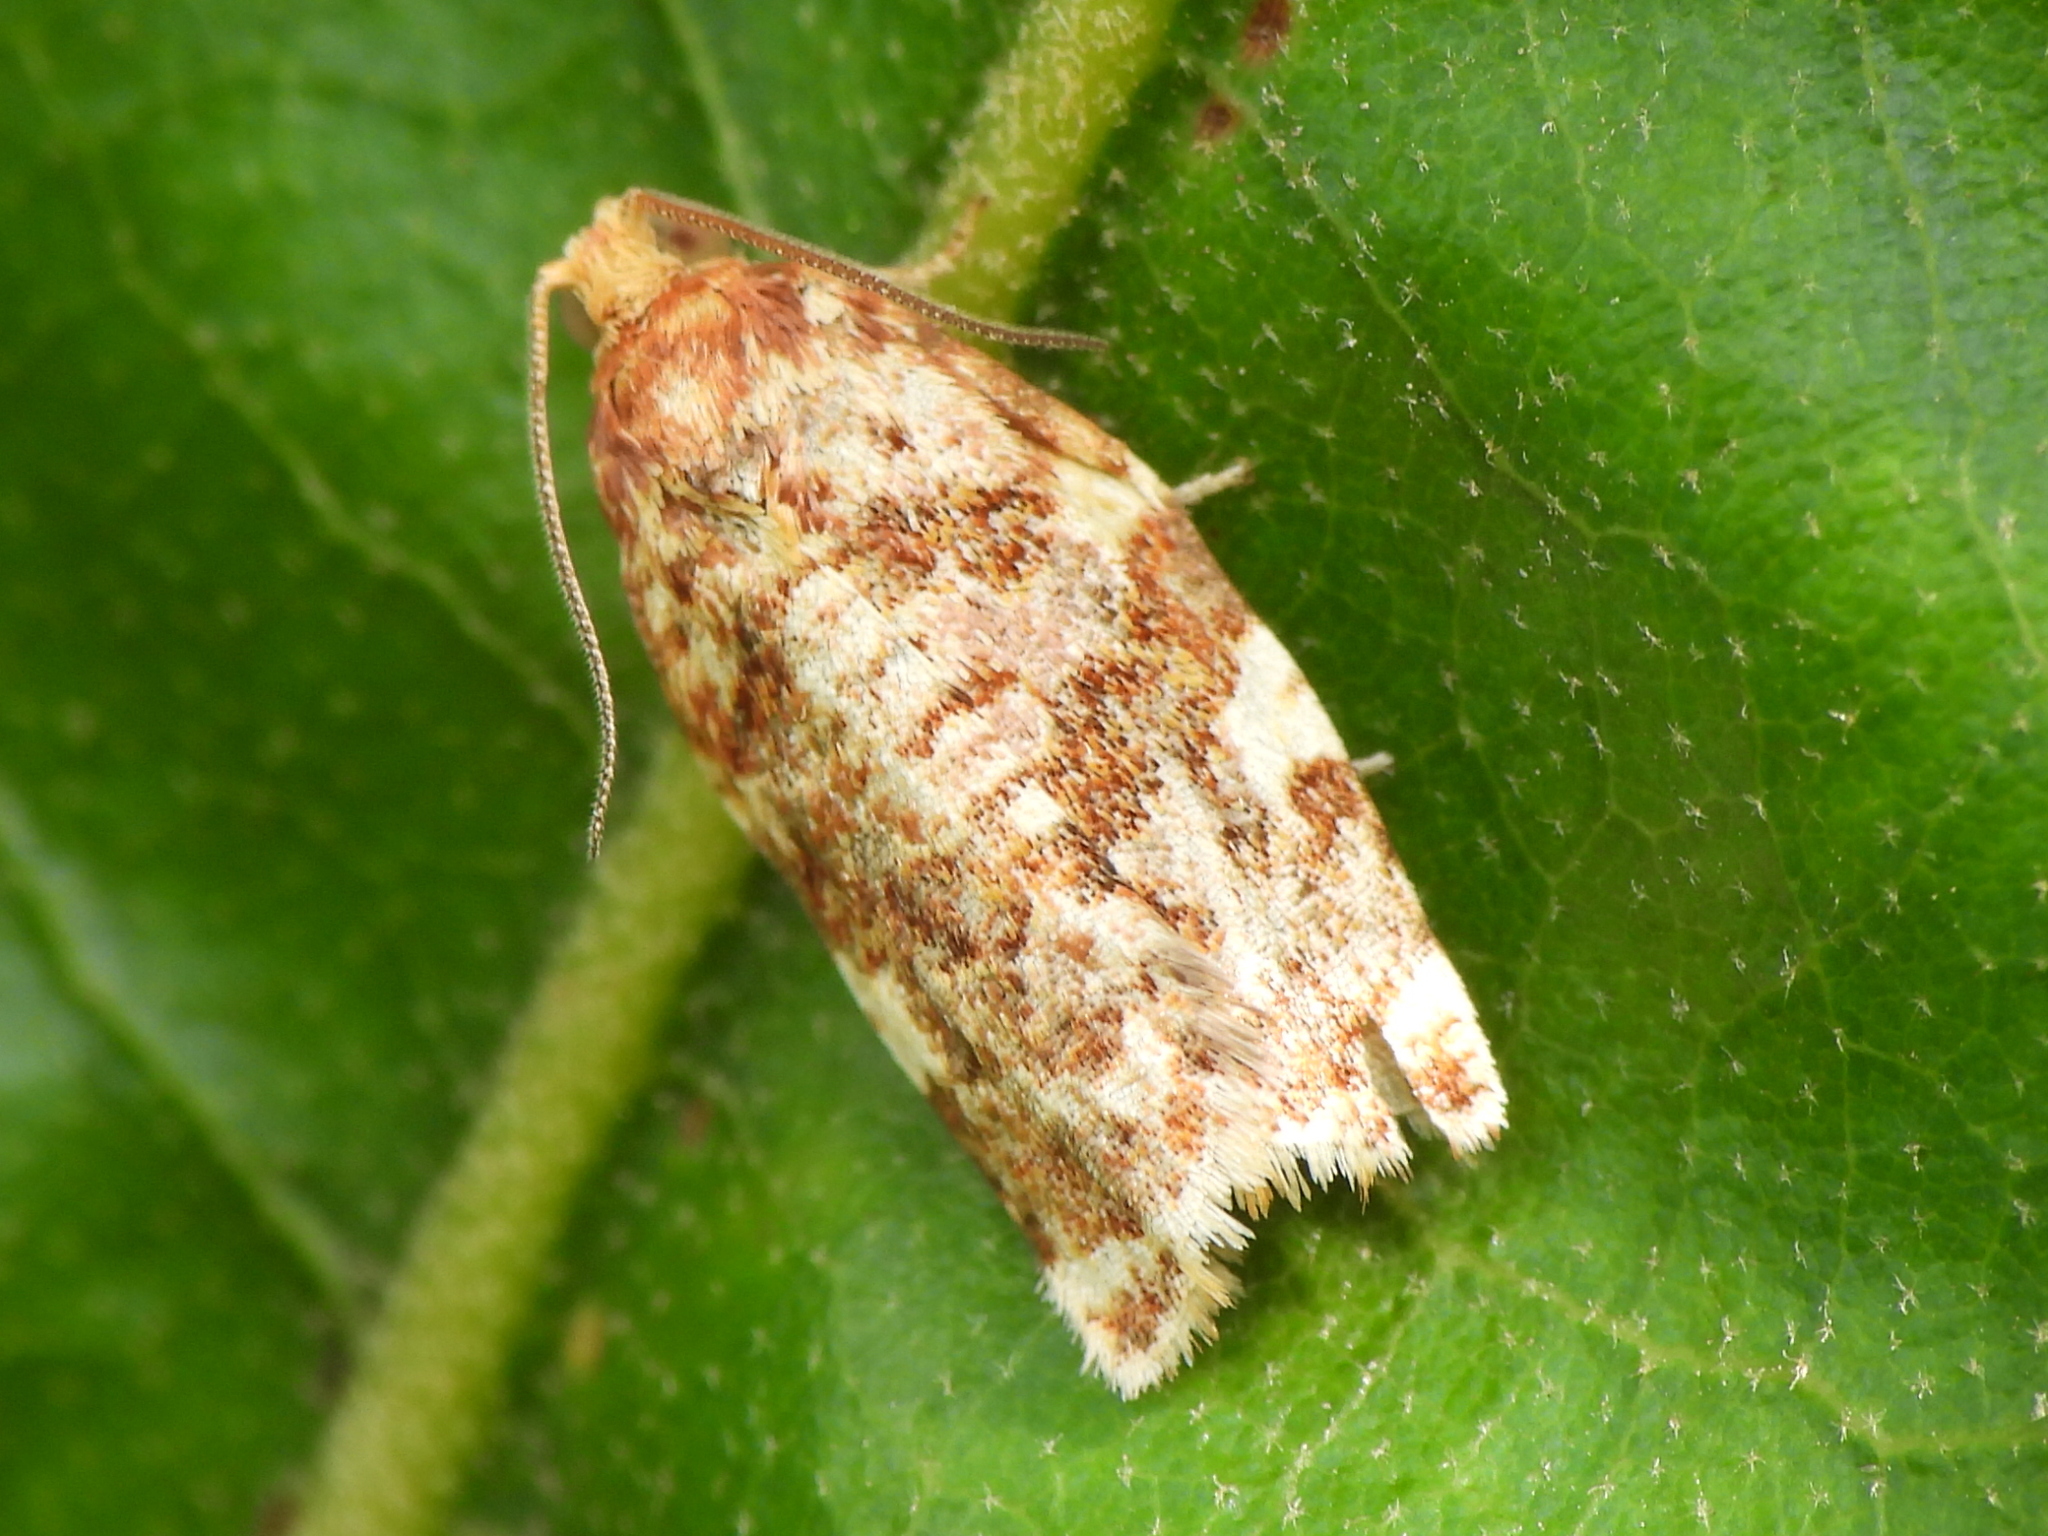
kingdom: Animalia
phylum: Arthropoda
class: Insecta
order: Lepidoptera
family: Tortricidae
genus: Archips
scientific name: Archips argyrospila
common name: Fruit-tree leafroller moth
